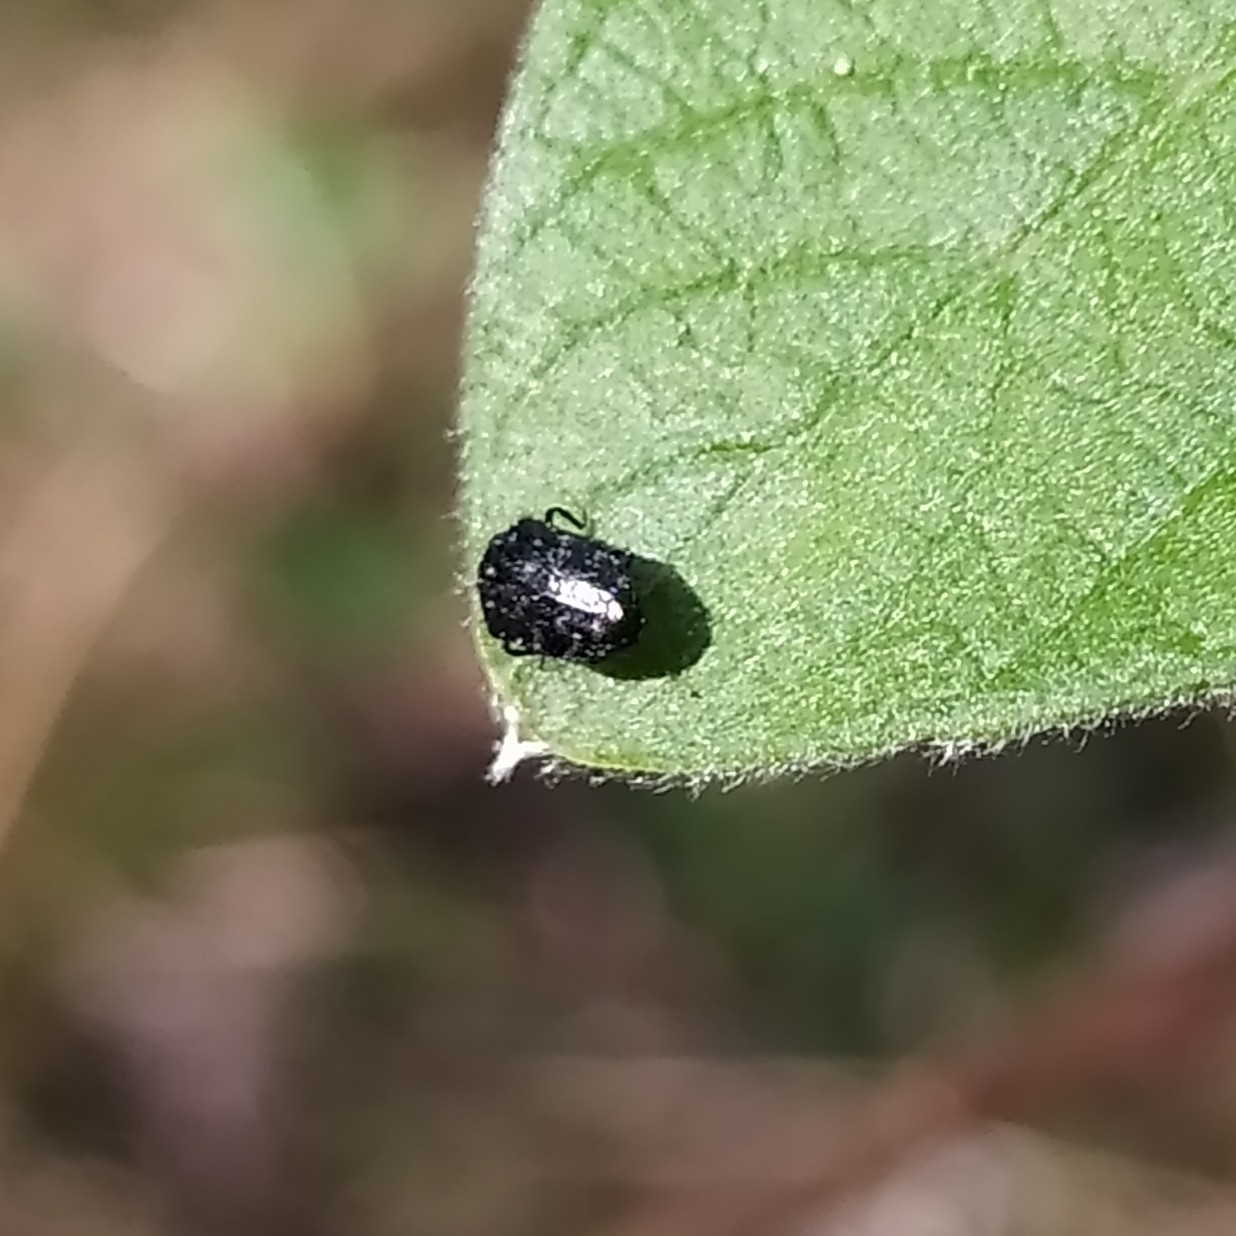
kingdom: Animalia
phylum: Arthropoda
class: Insecta
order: Coleoptera
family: Buprestidae
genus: Trachys
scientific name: Trachys minutus
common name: Metallic wood-boring beetle
